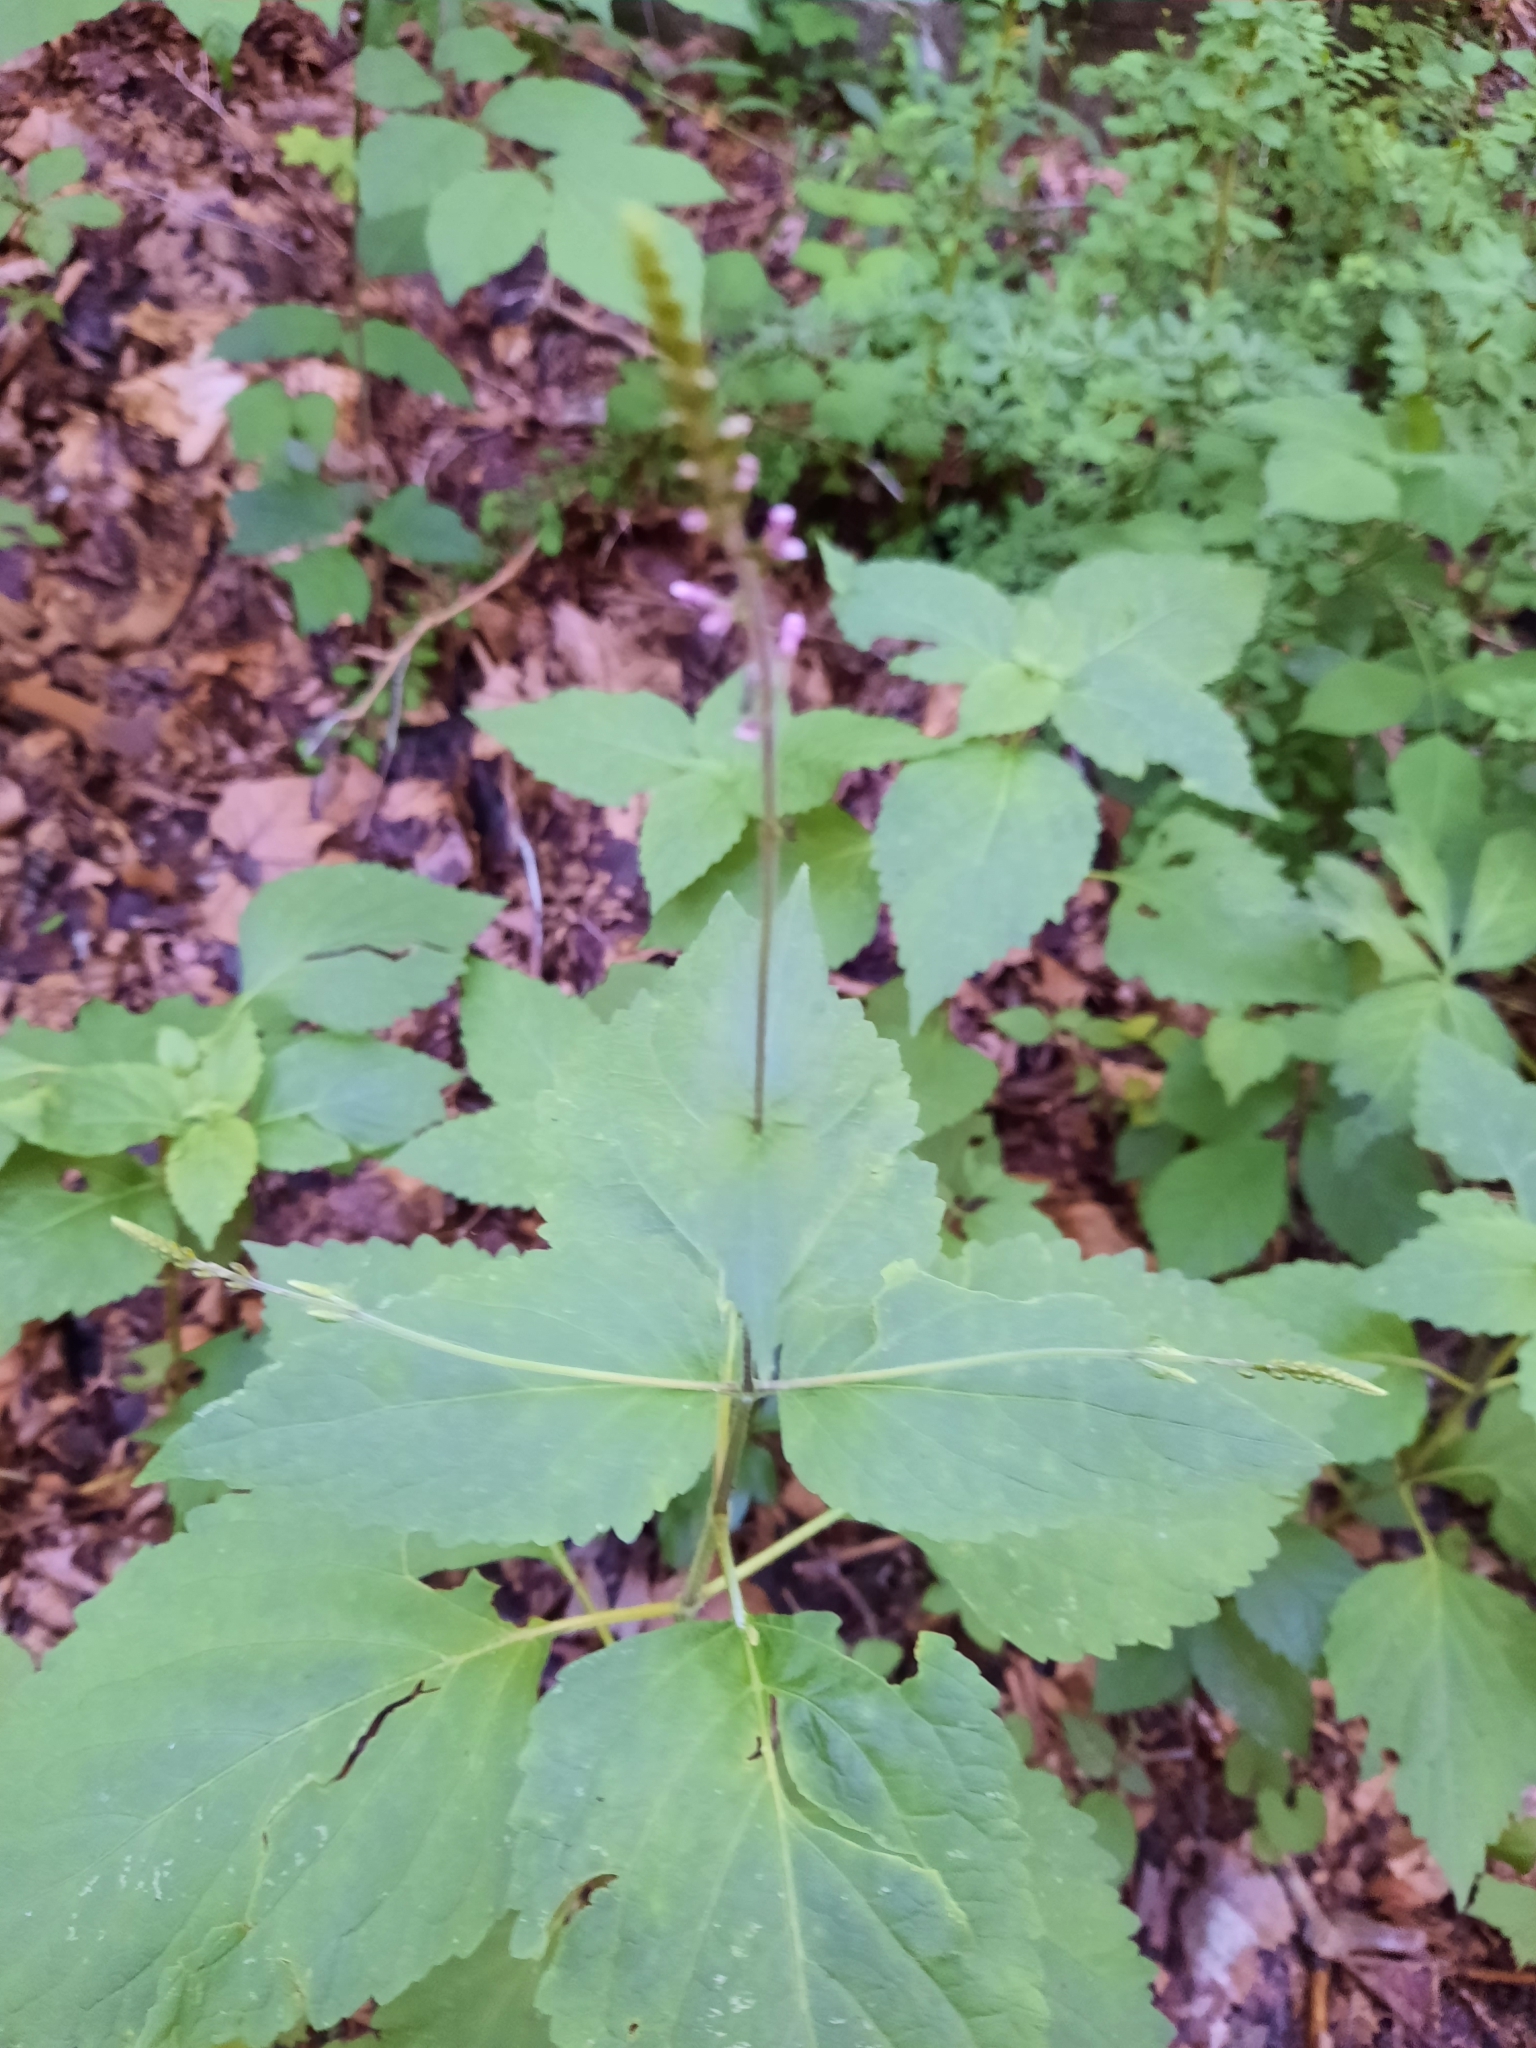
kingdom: Plantae
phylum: Tracheophyta
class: Magnoliopsida
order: Lamiales
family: Phrymaceae
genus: Phryma
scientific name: Phryma leptostachya
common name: American lopseed
